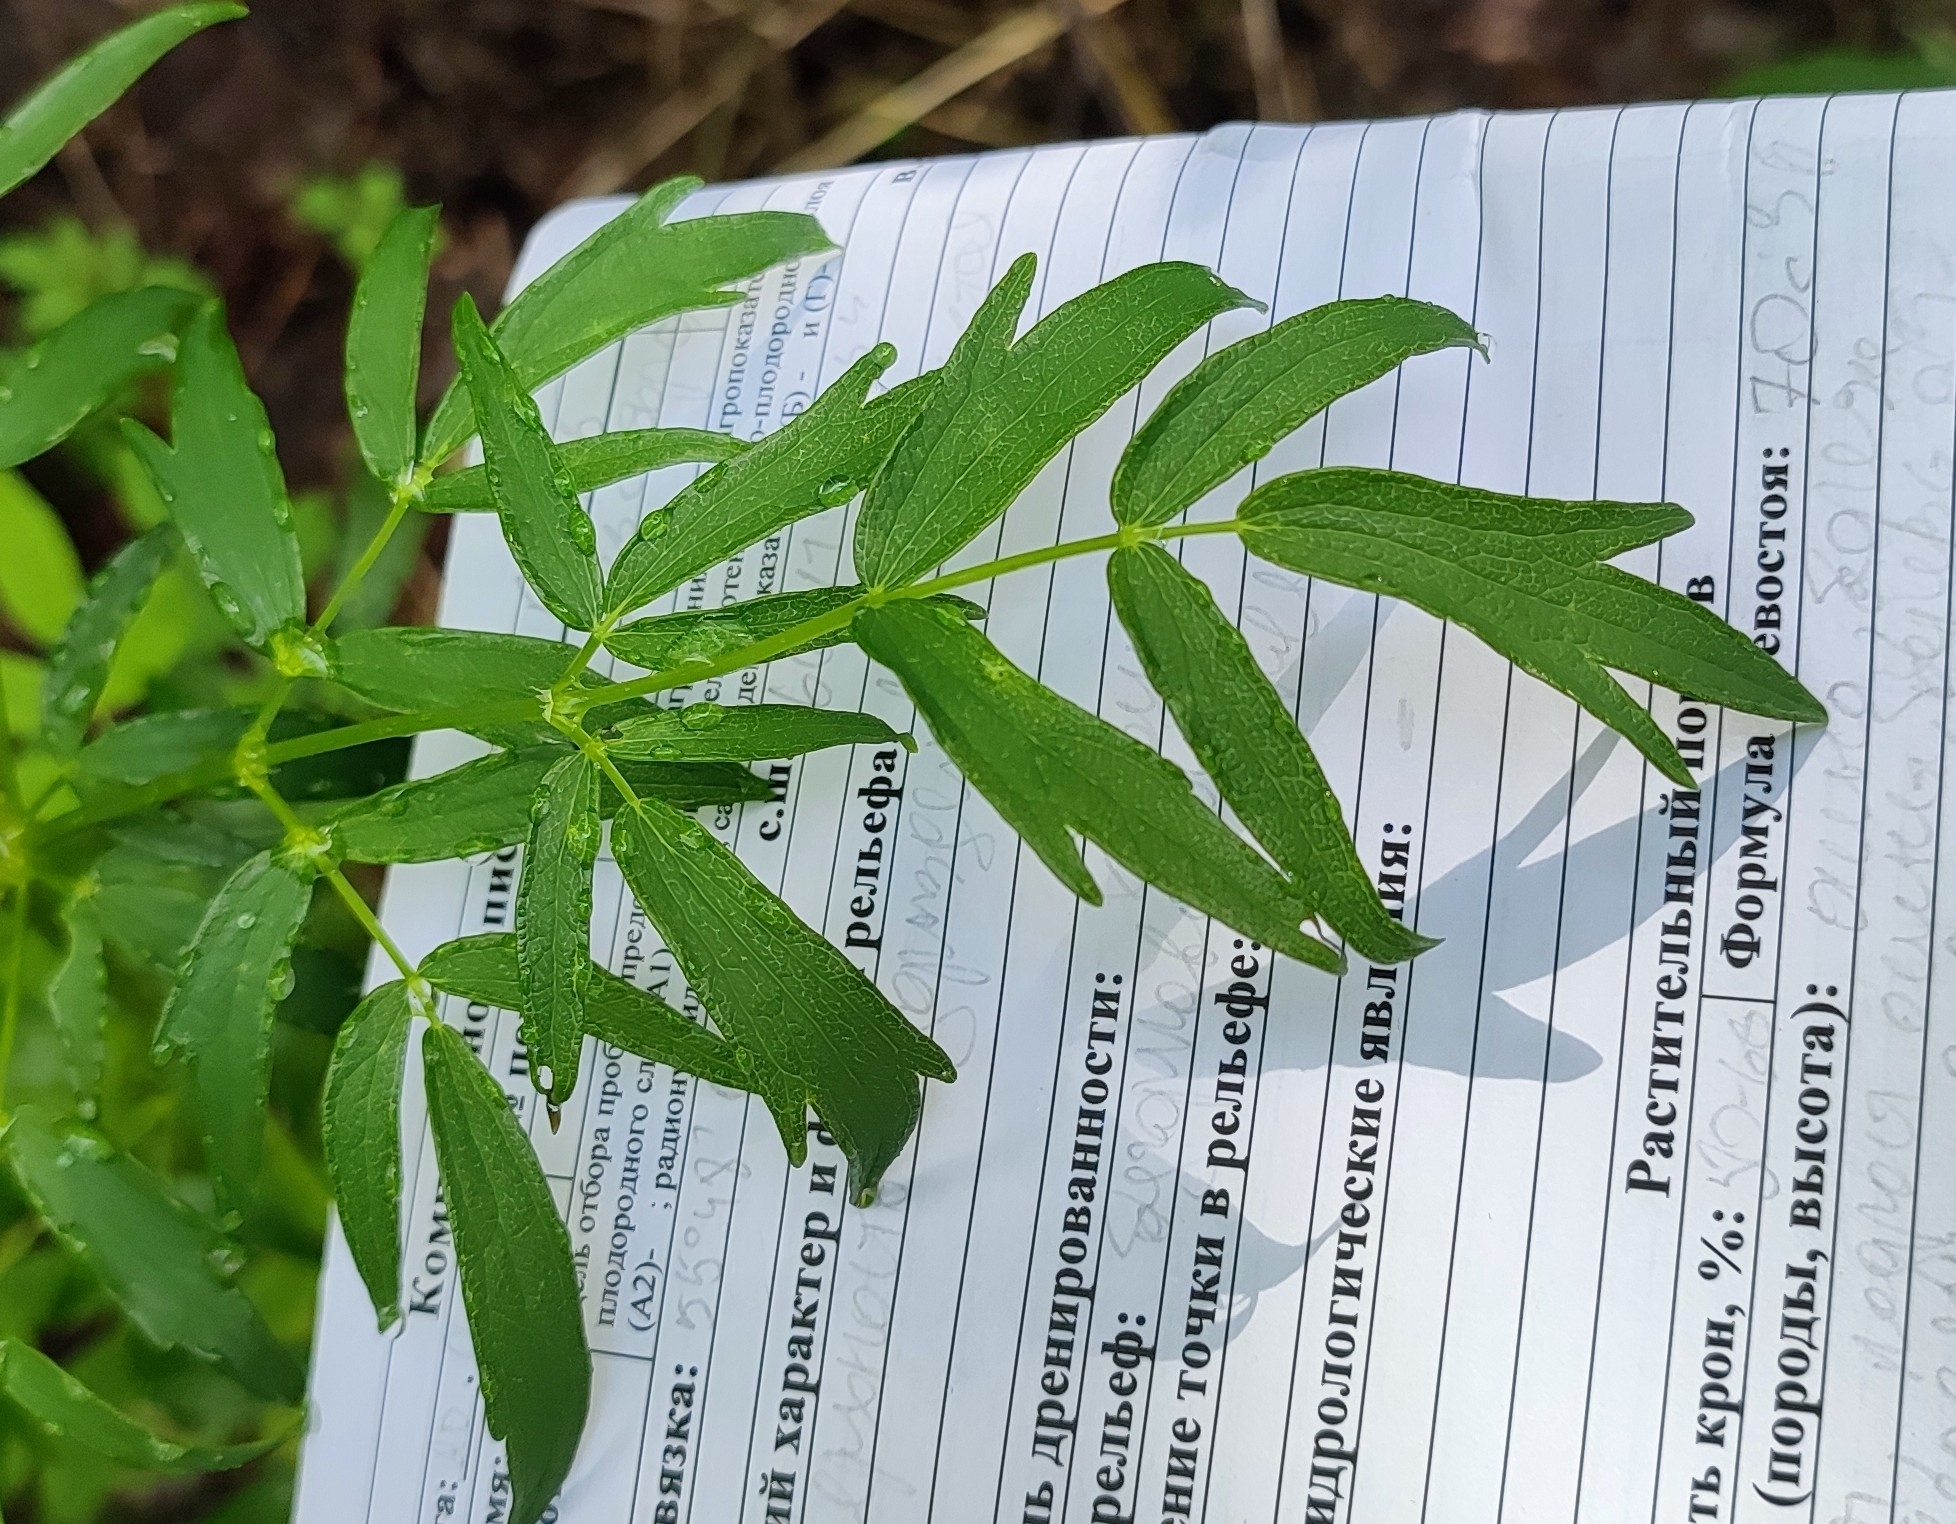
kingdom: Plantae
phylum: Tracheophyta
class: Magnoliopsida
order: Ranunculales
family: Ranunculaceae
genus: Thalictrum
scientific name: Thalictrum flavum
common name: Common meadow-rue
